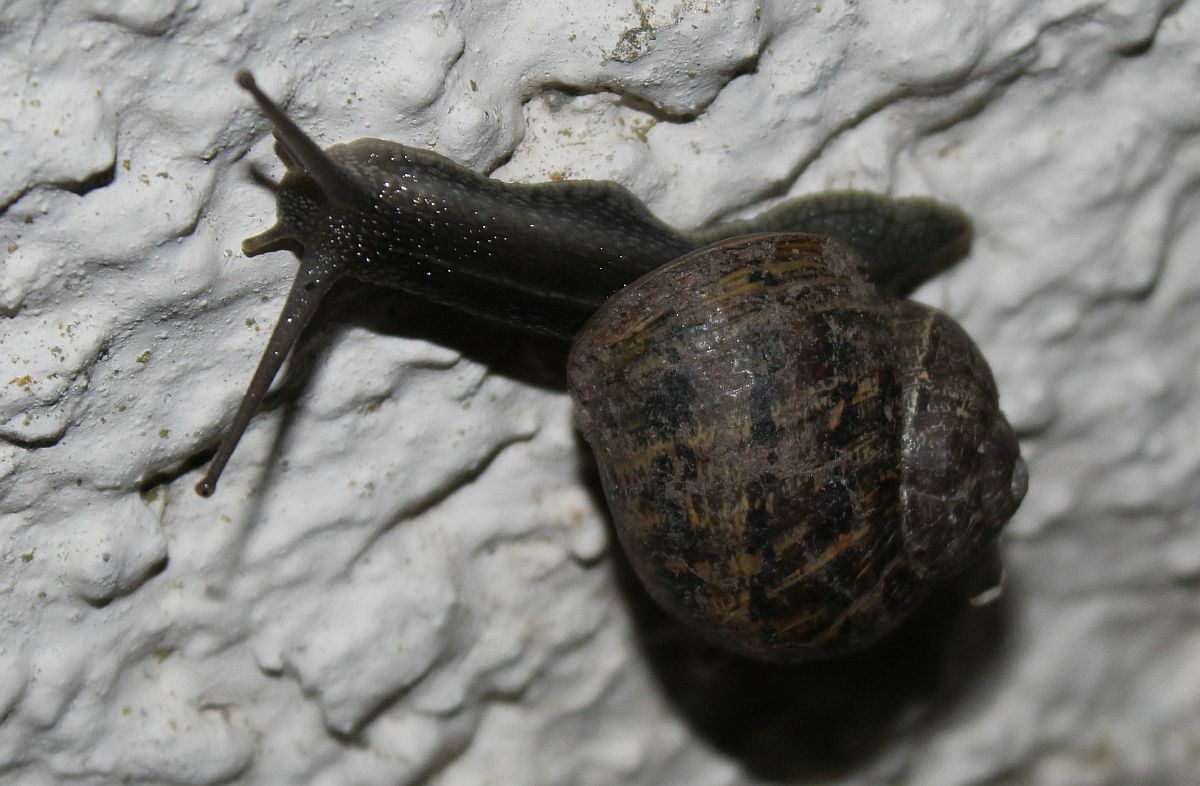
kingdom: Animalia
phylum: Mollusca
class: Gastropoda
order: Stylommatophora
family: Helicidae
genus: Cornu
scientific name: Cornu aspersum
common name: Brown garden snail
